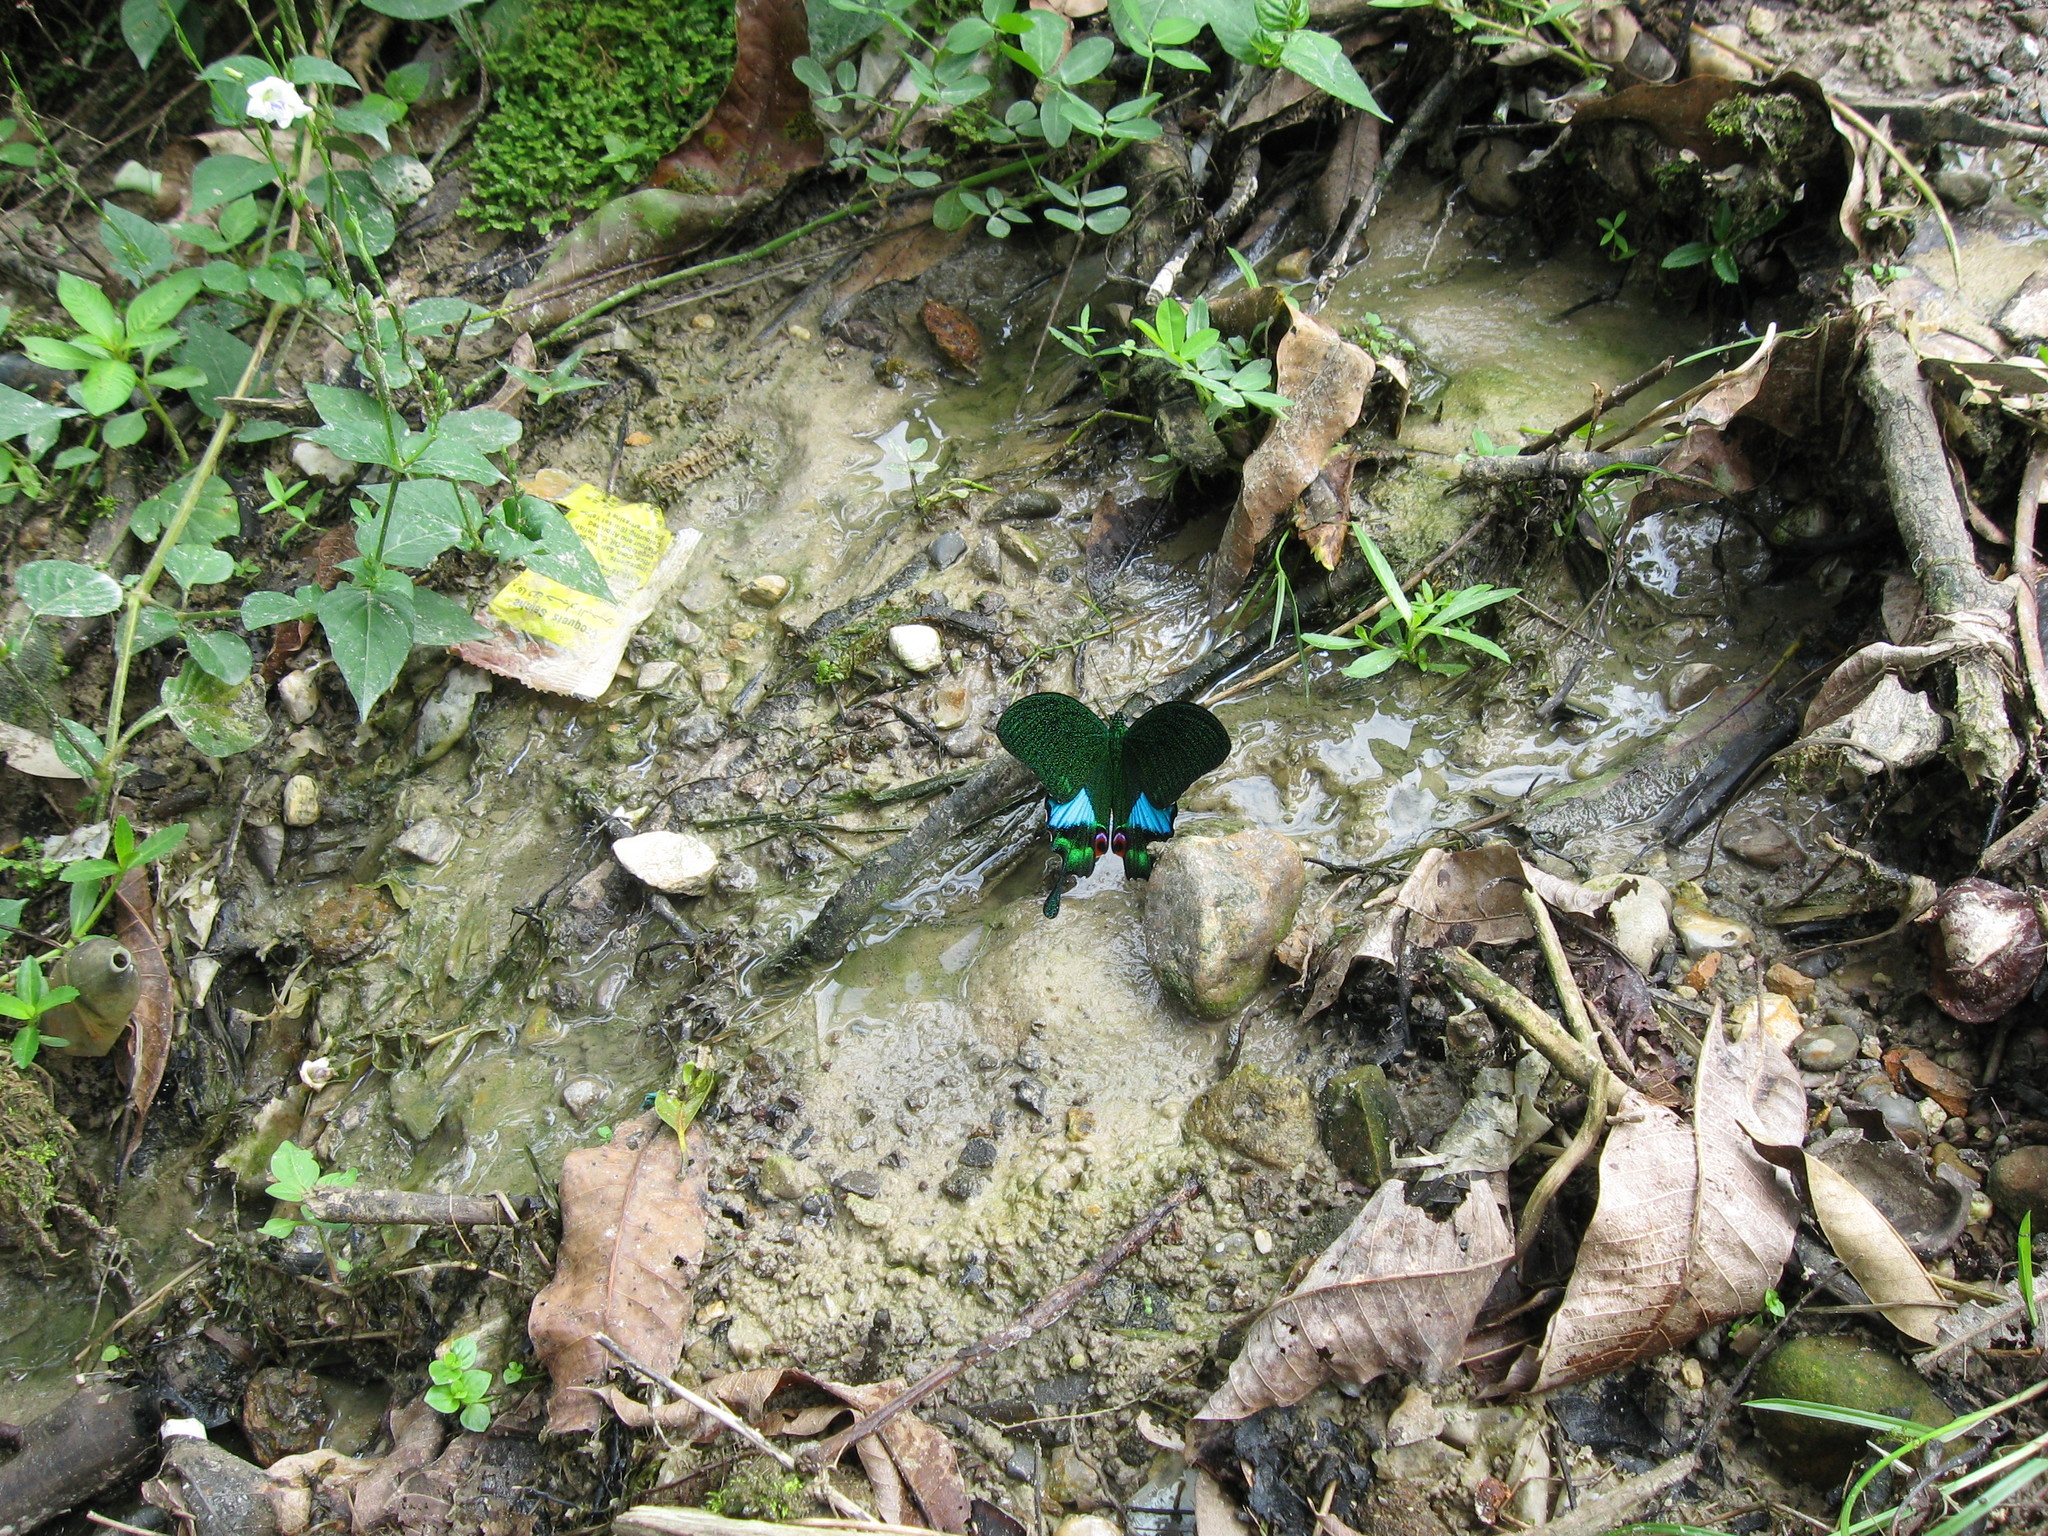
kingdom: Animalia
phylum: Arthropoda
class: Insecta
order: Lepidoptera
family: Papilionidae
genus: Papilio
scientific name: Papilio karna
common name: Jungle jade swallowtail
